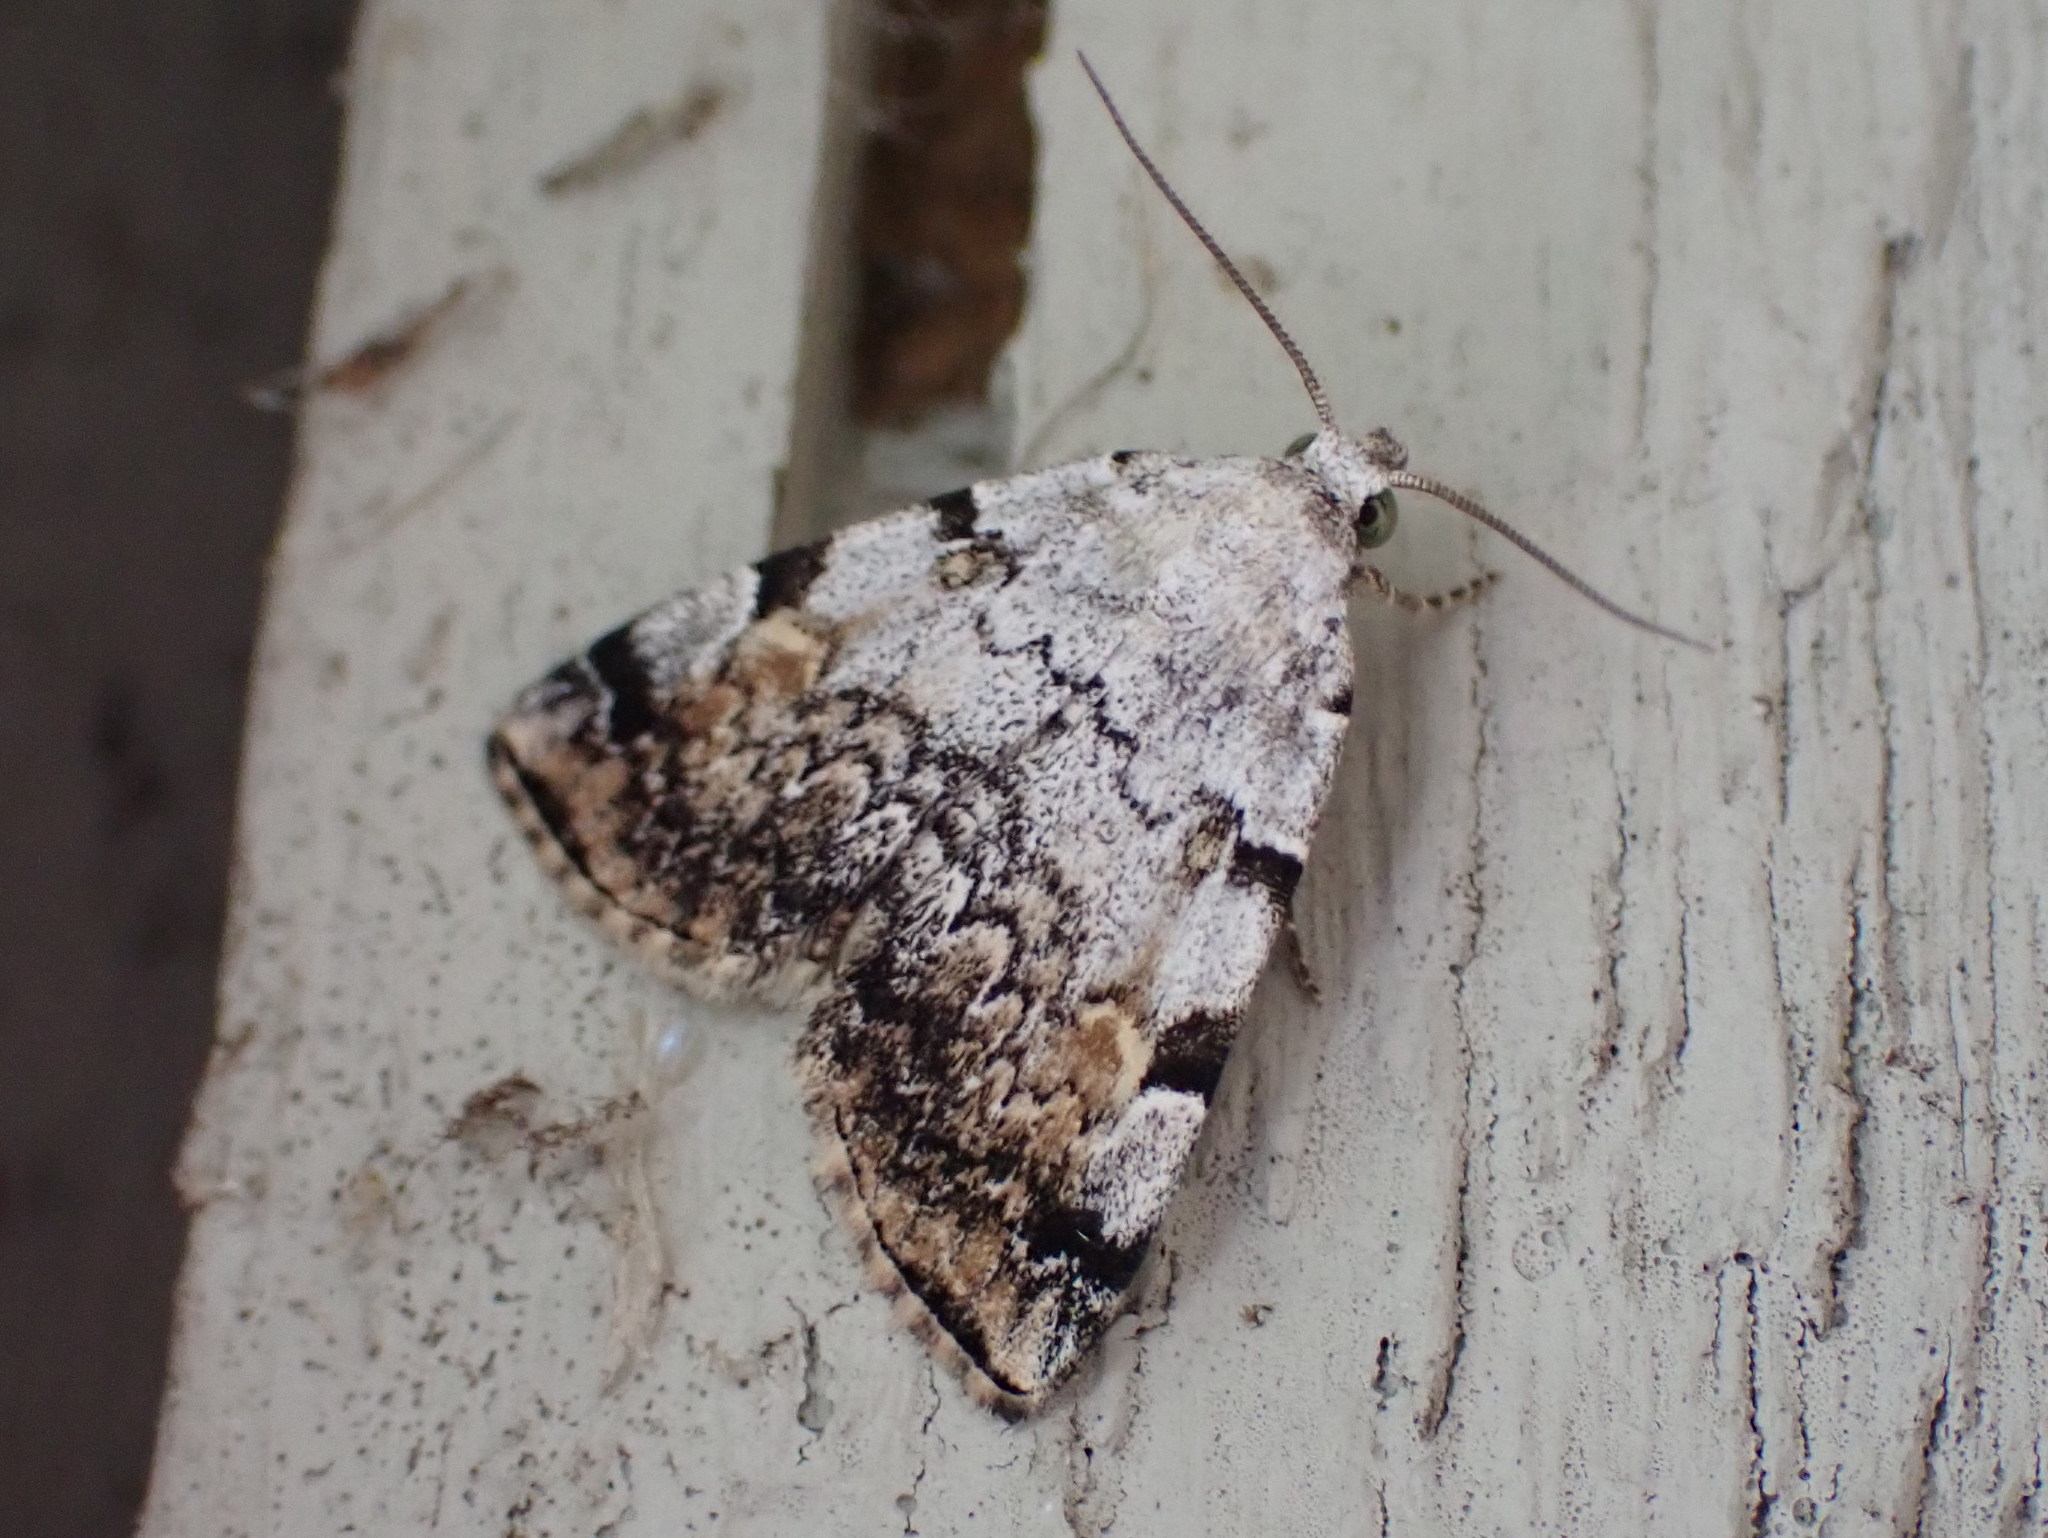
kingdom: Animalia
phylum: Arthropoda
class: Insecta
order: Lepidoptera
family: Erebidae
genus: Idia
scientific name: Idia americalis
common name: American idia moth
